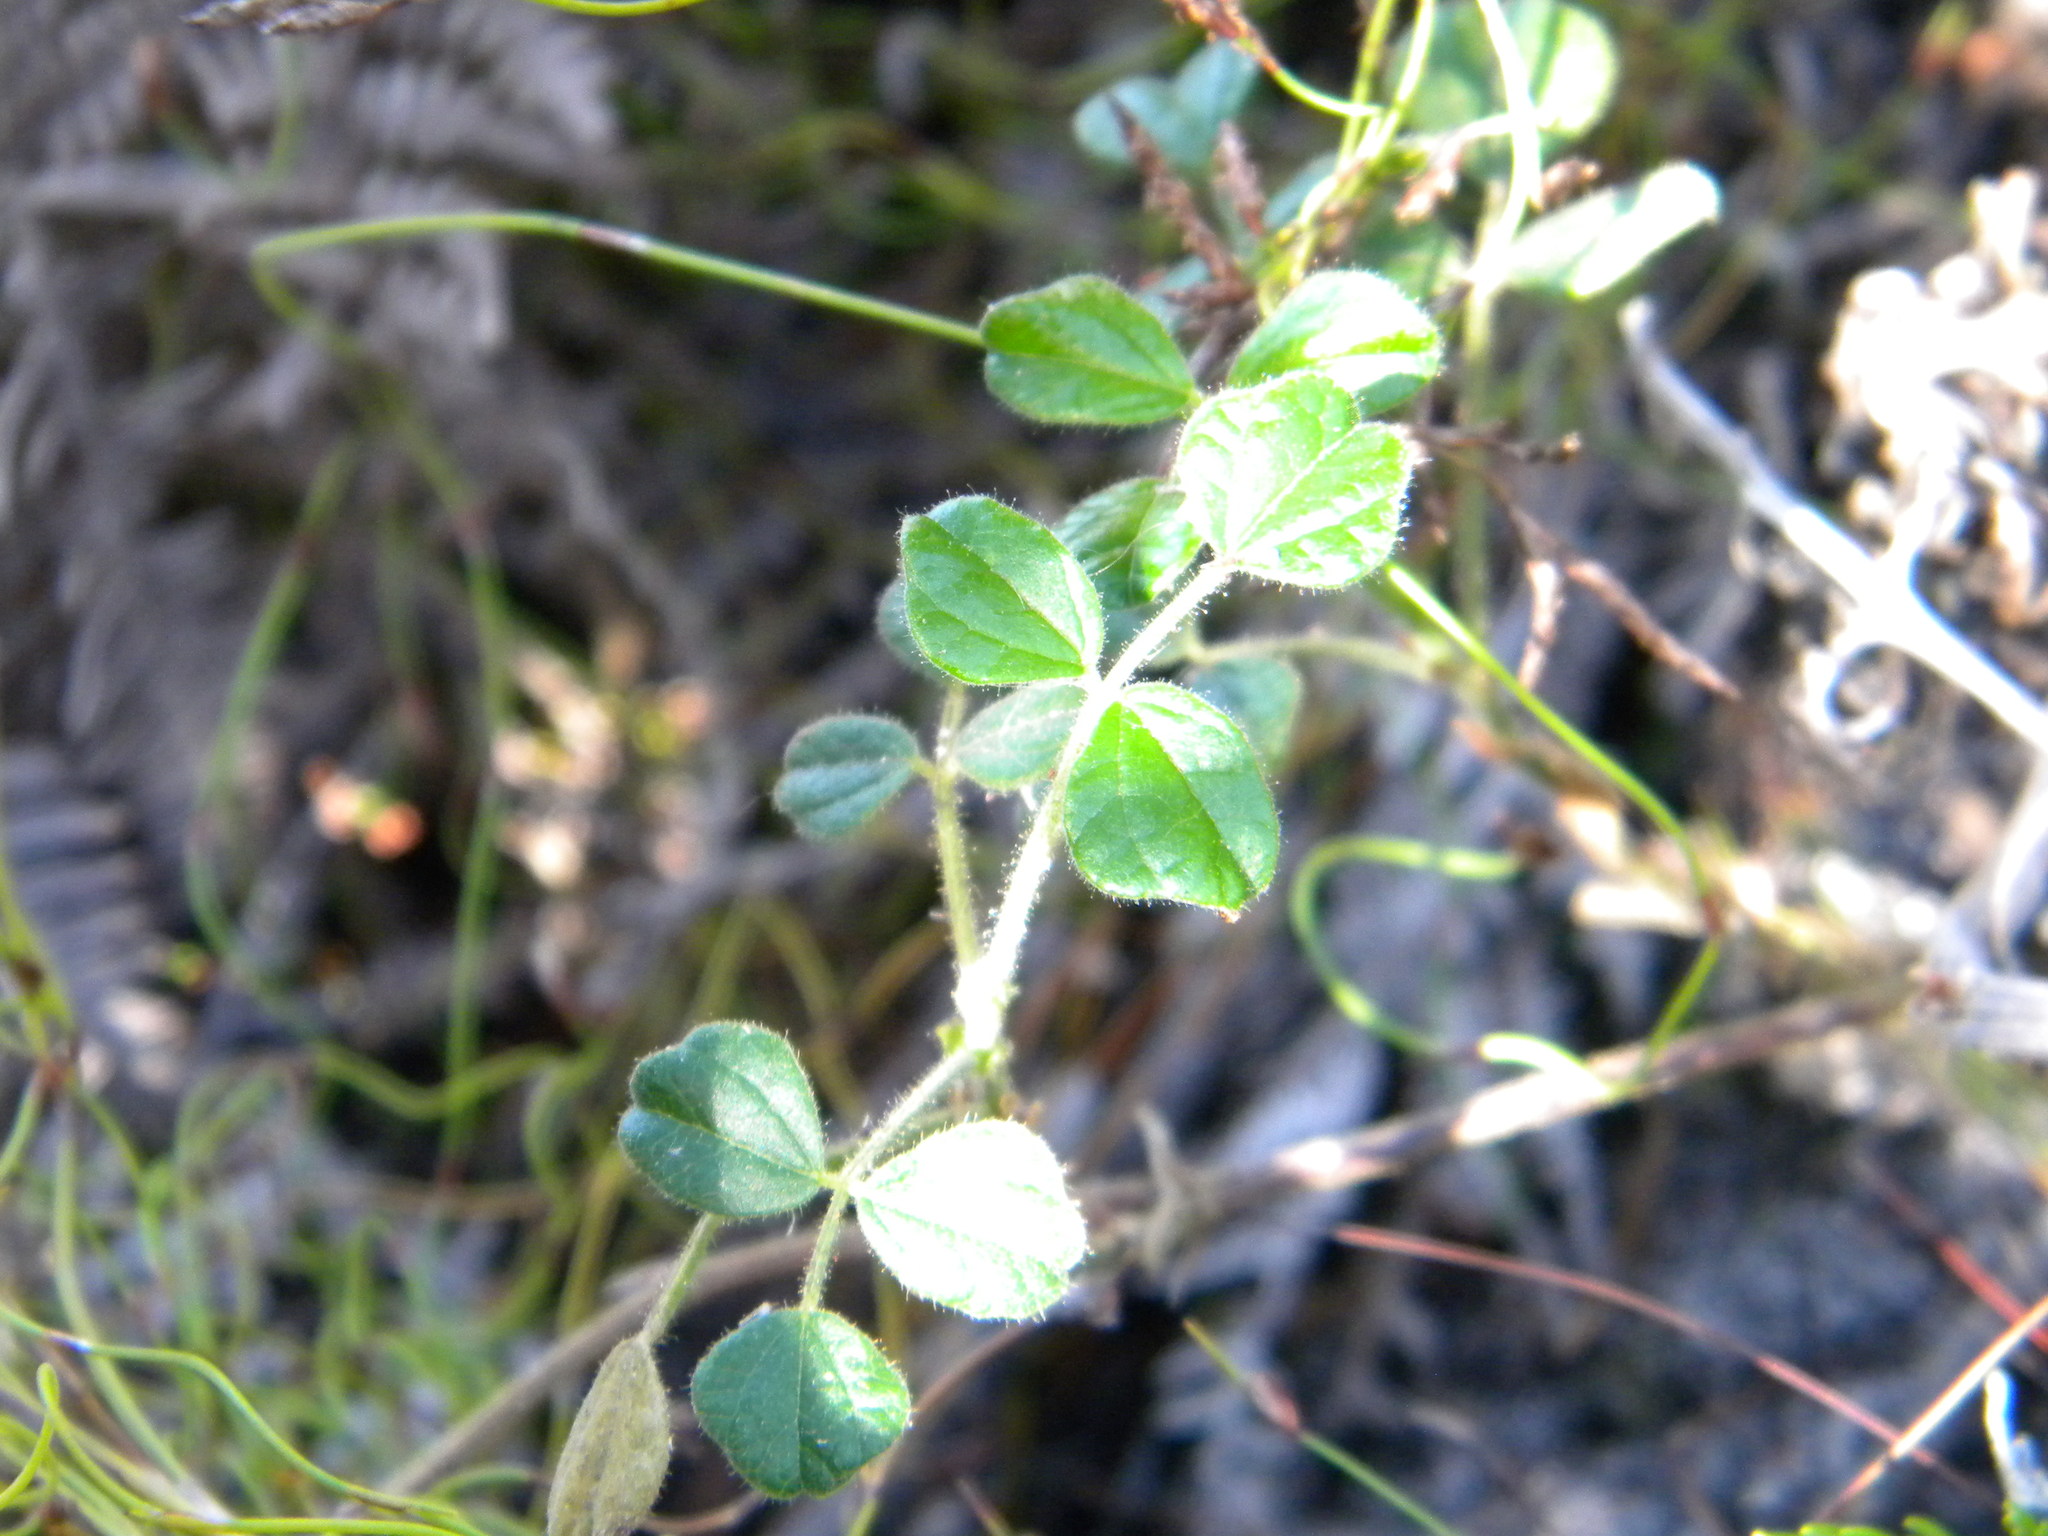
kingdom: Plantae
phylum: Tracheophyta
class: Magnoliopsida
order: Fabales
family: Fabaceae
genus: Bolusafra
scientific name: Bolusafra bituminosa
